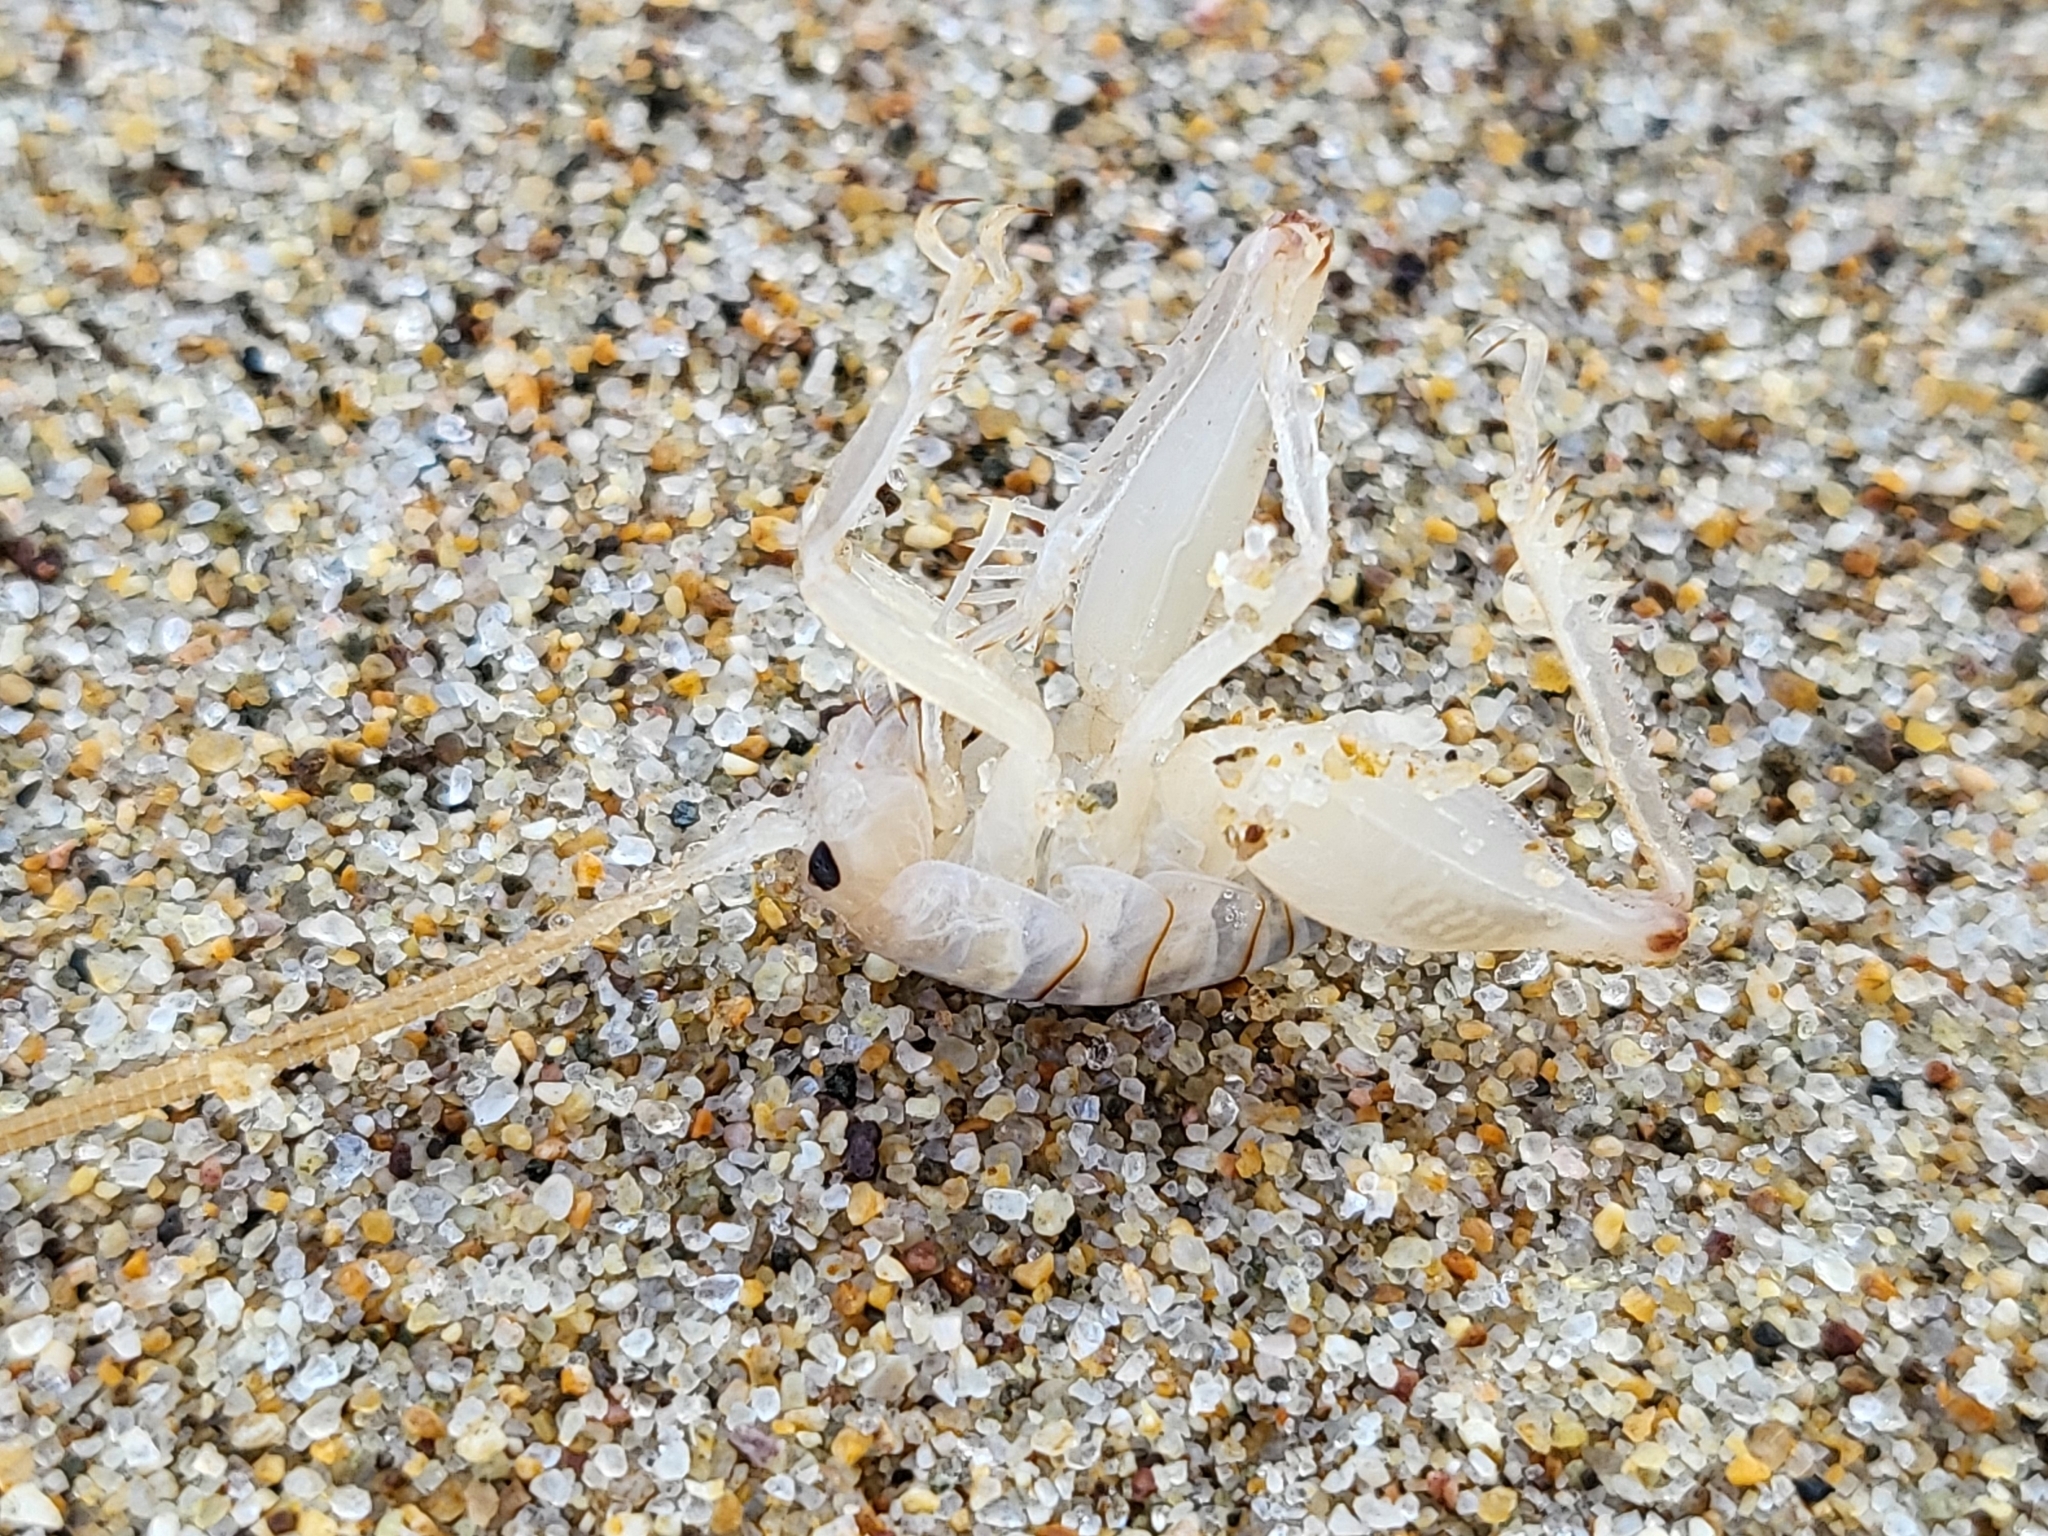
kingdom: Animalia
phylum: Arthropoda
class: Insecta
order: Orthoptera
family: Rhaphidophoridae
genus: Rhachocnemis
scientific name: Rhachocnemis validus
